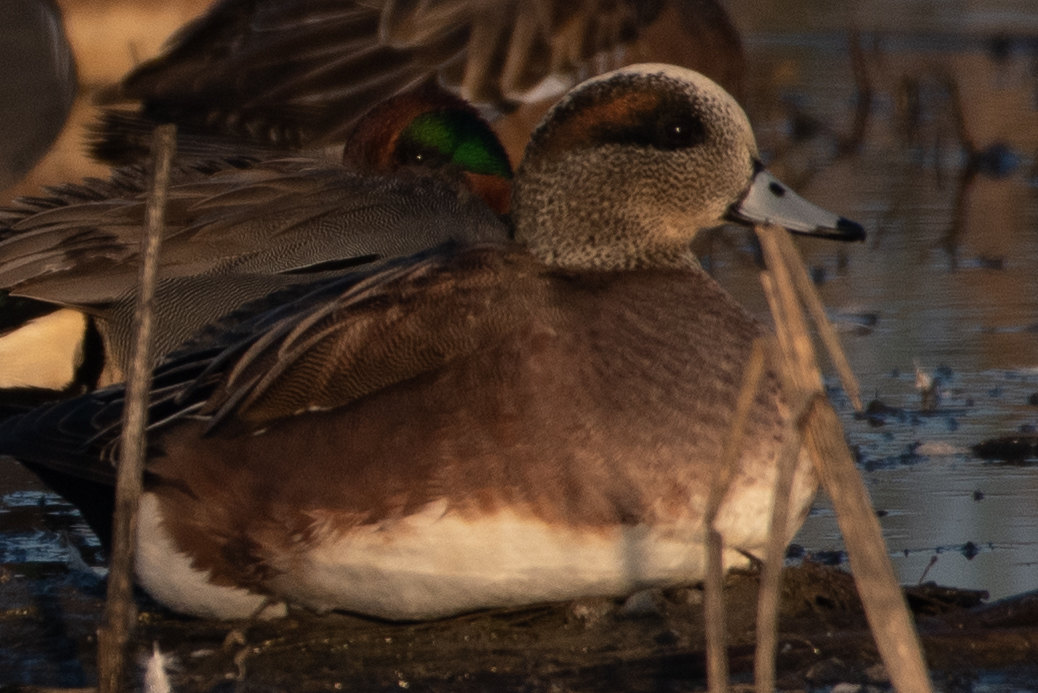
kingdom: Animalia
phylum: Chordata
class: Aves
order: Anseriformes
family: Anatidae
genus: Mareca
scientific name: Mareca americana
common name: American wigeon
